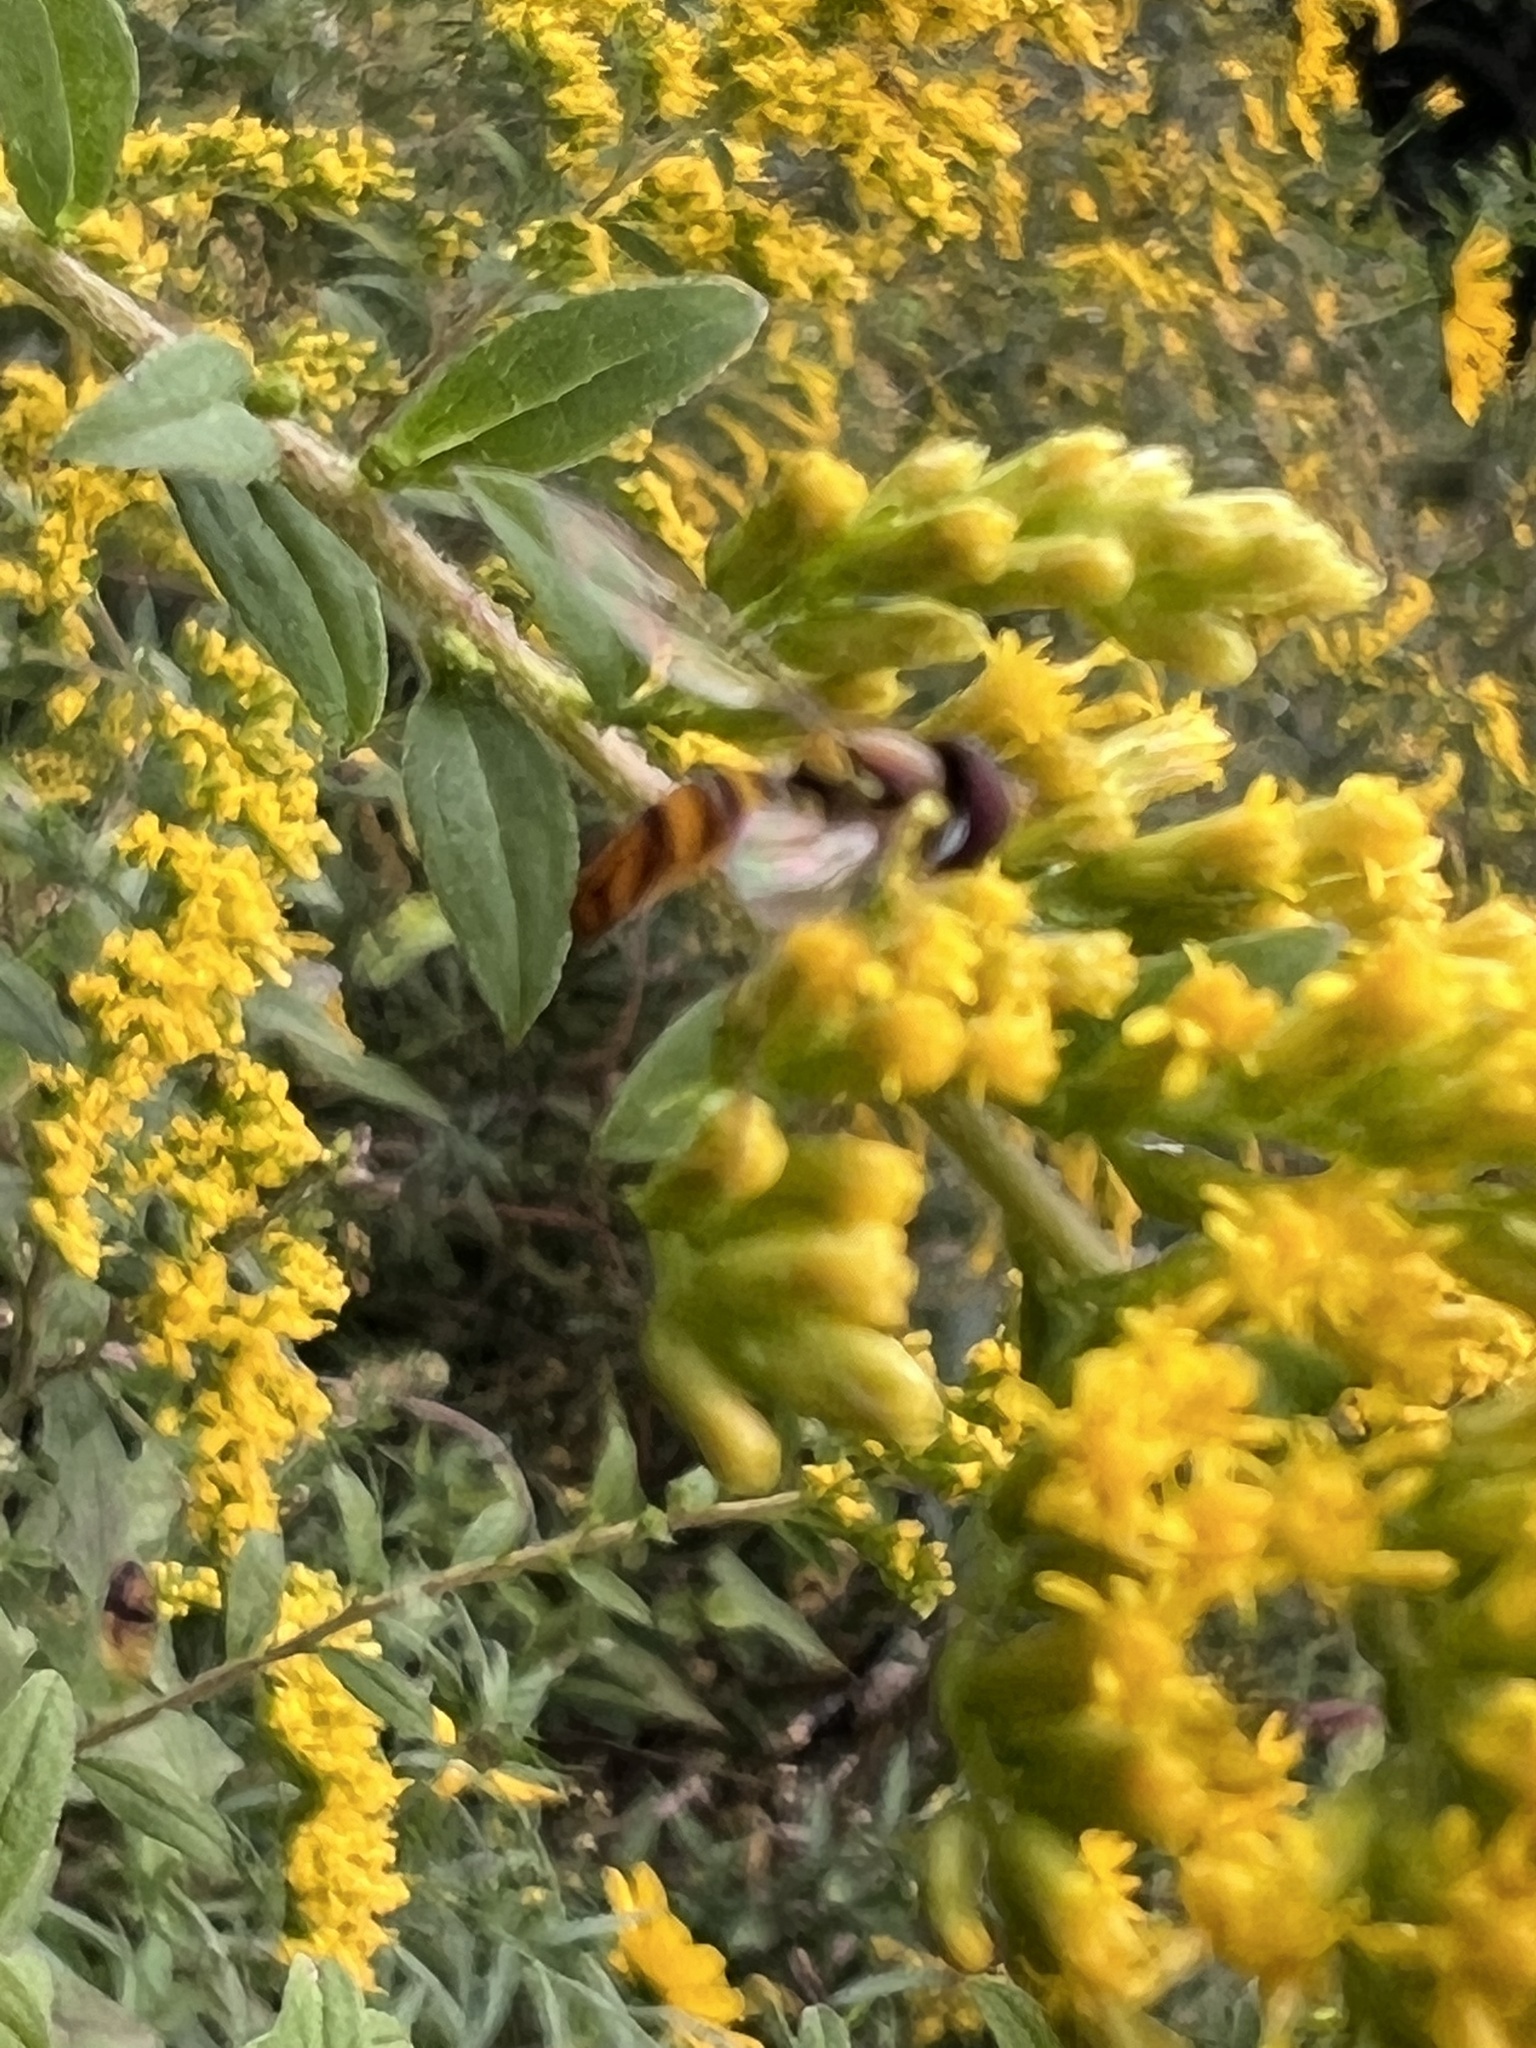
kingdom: Animalia
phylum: Arthropoda
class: Insecta
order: Diptera
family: Syrphidae
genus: Allograpta
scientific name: Allograpta obliqua
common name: Common oblique syrphid
